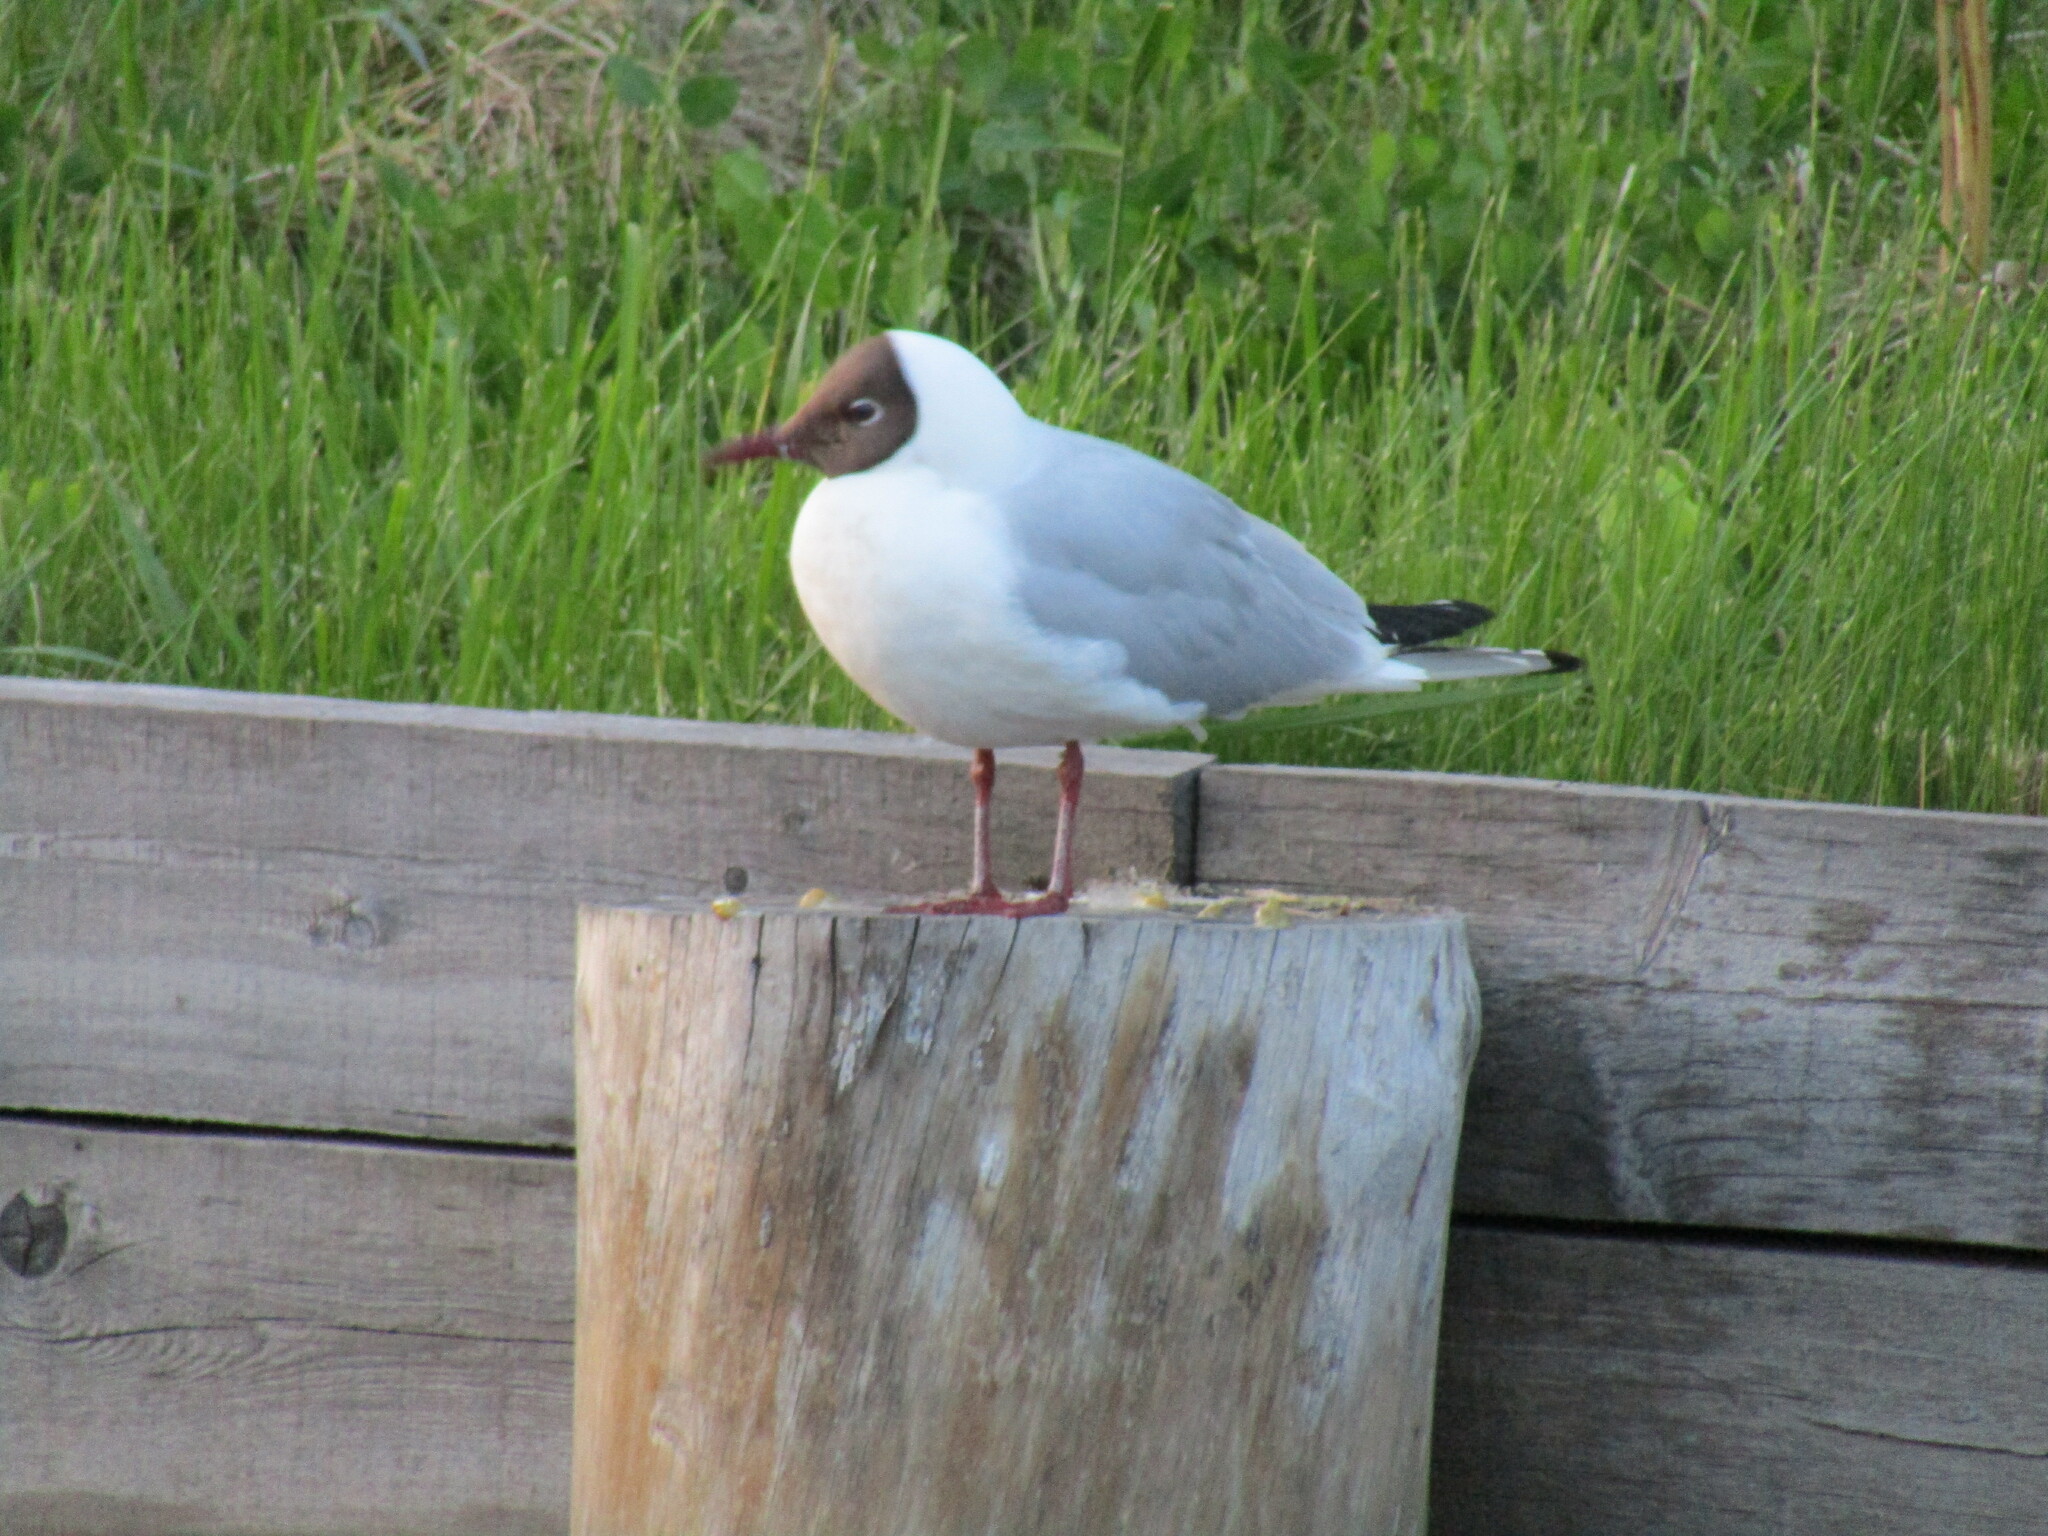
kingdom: Animalia
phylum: Chordata
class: Aves
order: Charadriiformes
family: Laridae
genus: Chroicocephalus
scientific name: Chroicocephalus ridibundus
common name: Black-headed gull
